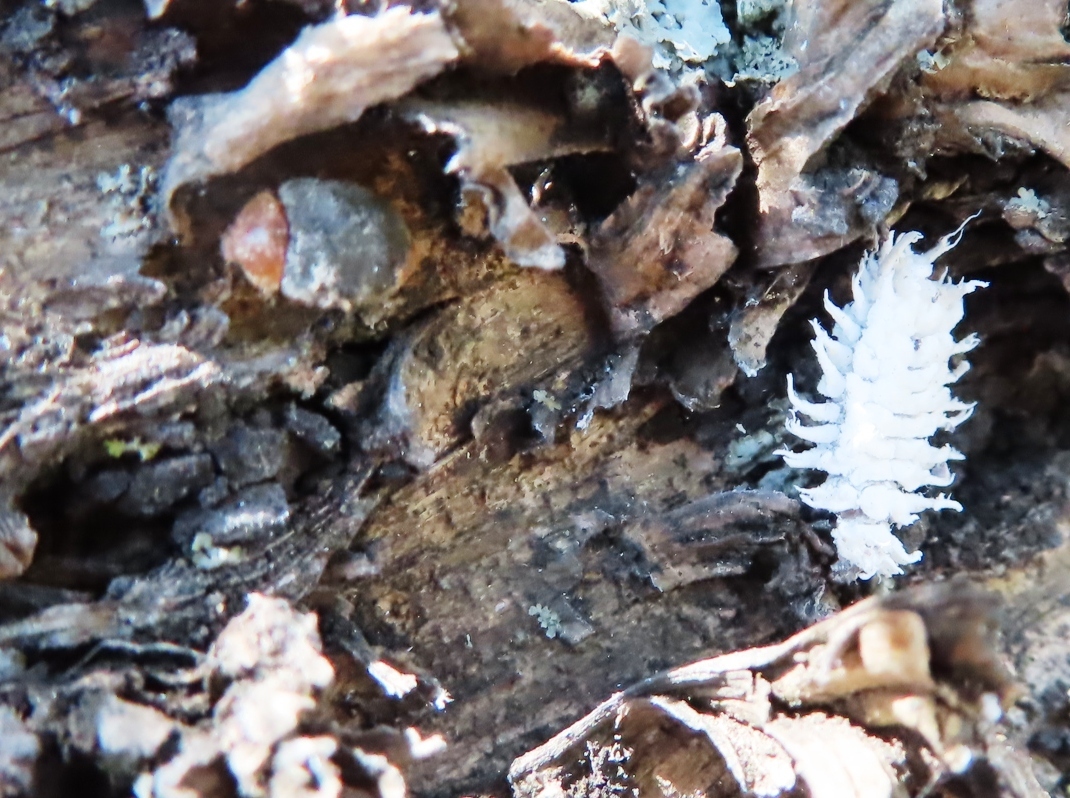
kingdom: Animalia
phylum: Arthropoda
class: Insecta
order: Coleoptera
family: Coccinellidae
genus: Cryptolaemus
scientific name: Cryptolaemus montrouzieri
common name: Mealybug destroyer
